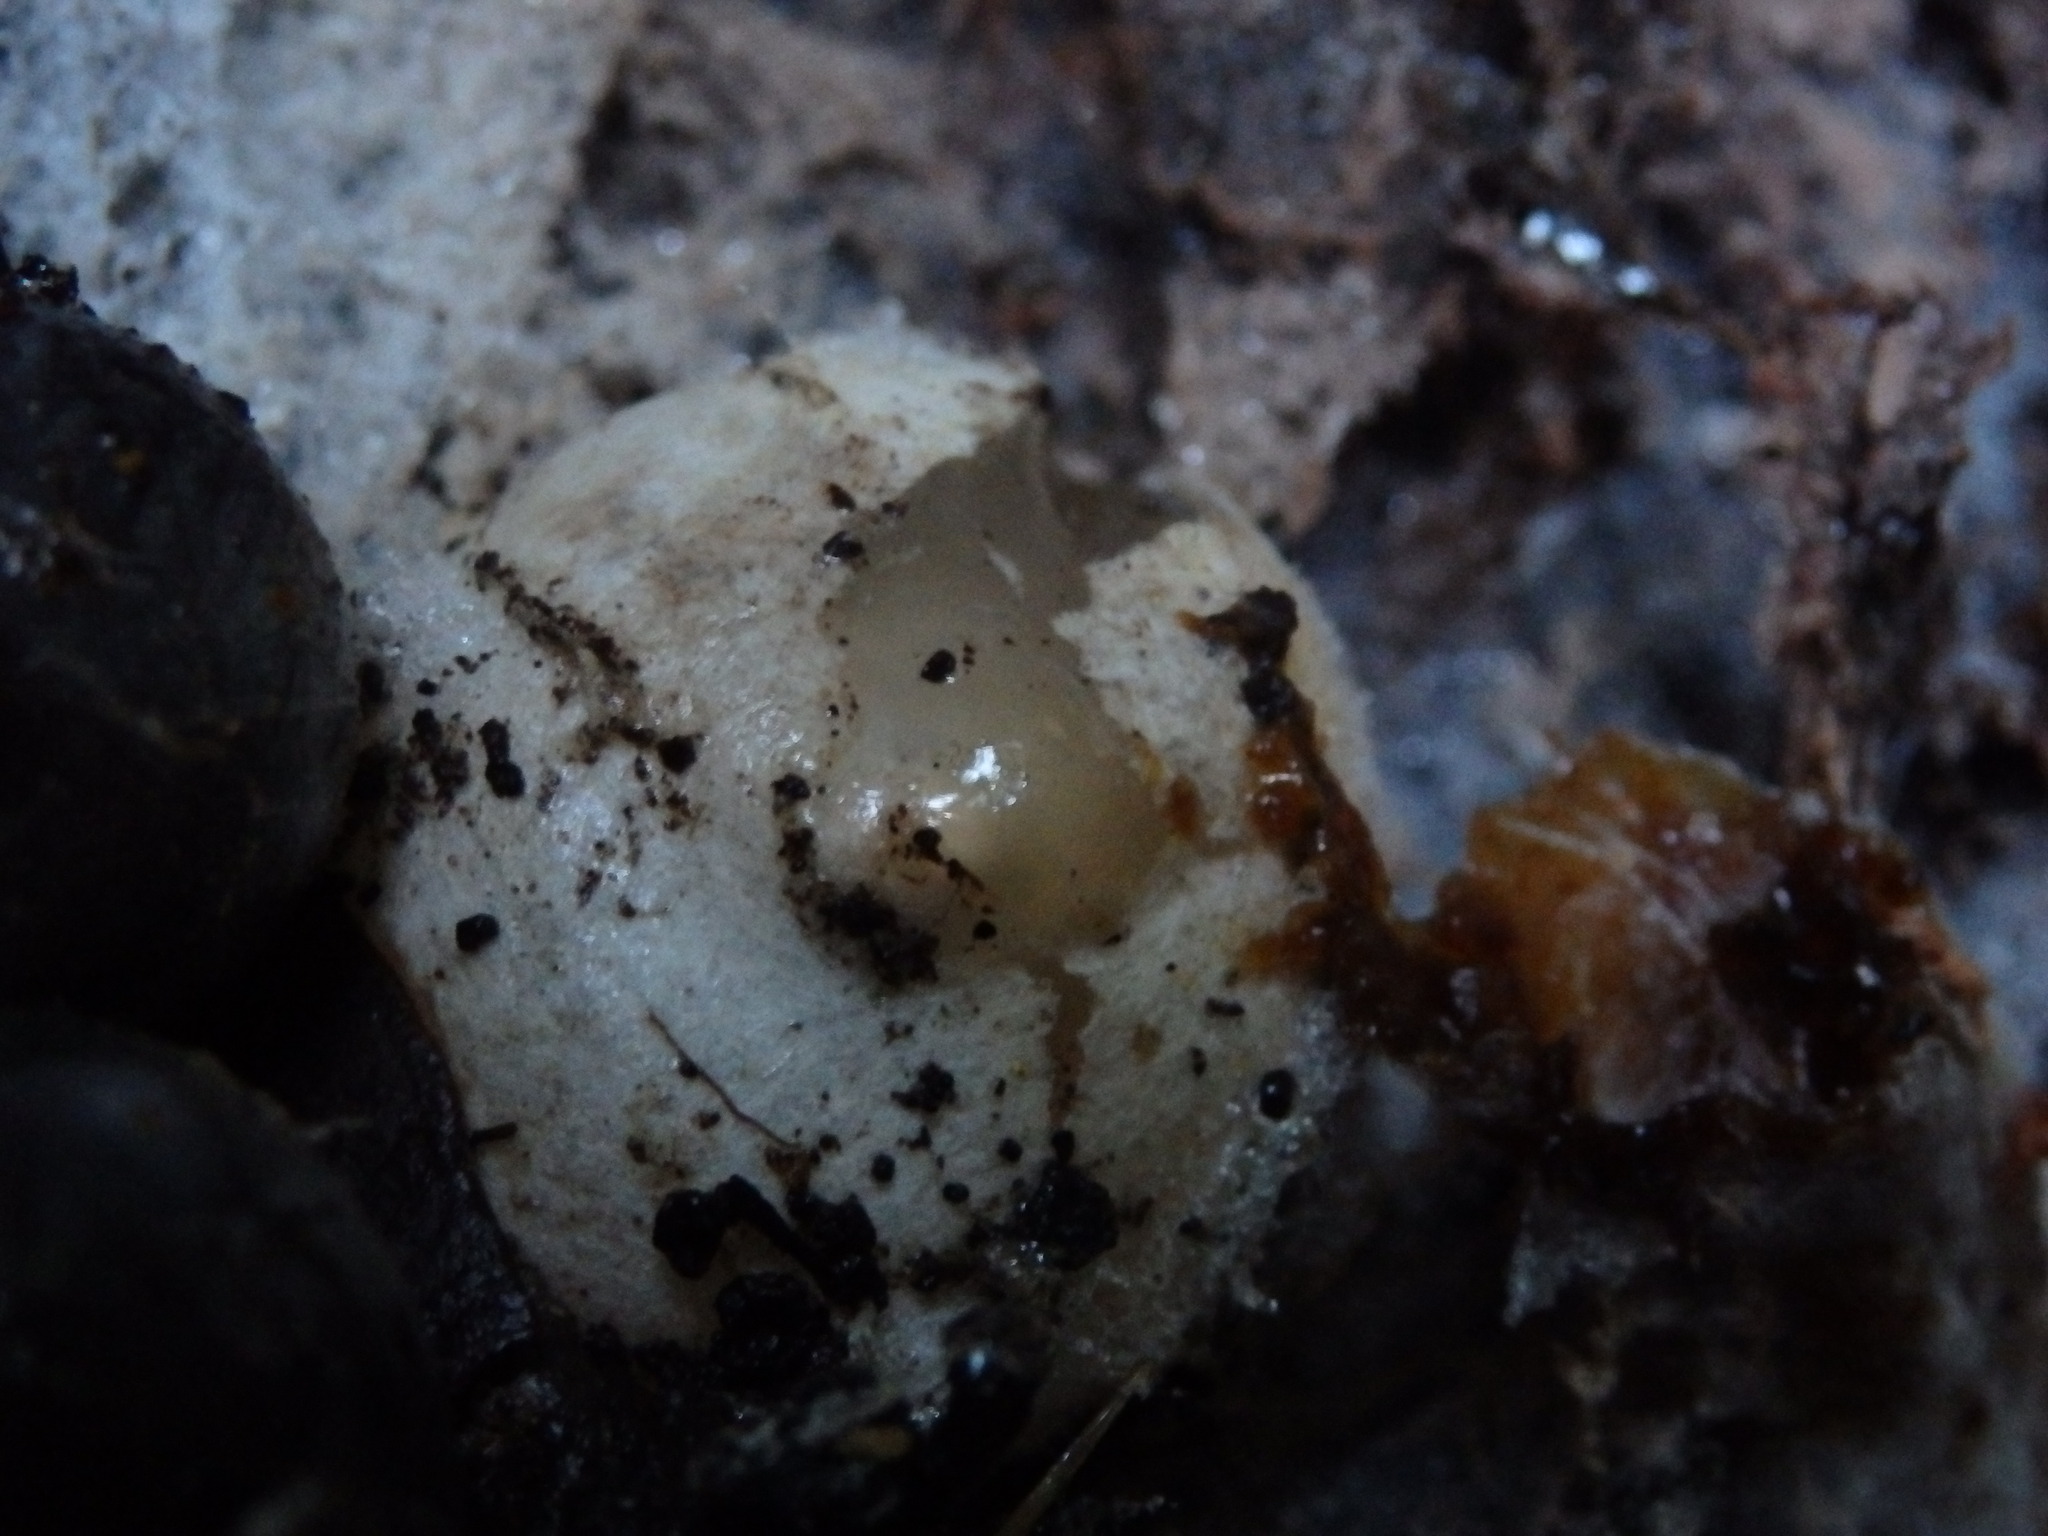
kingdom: Fungi
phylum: Basidiomycota
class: Agaricomycetes
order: Phallales
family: Phallaceae
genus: Mutinus
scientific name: Mutinus caninus
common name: Dog stinkhorn
